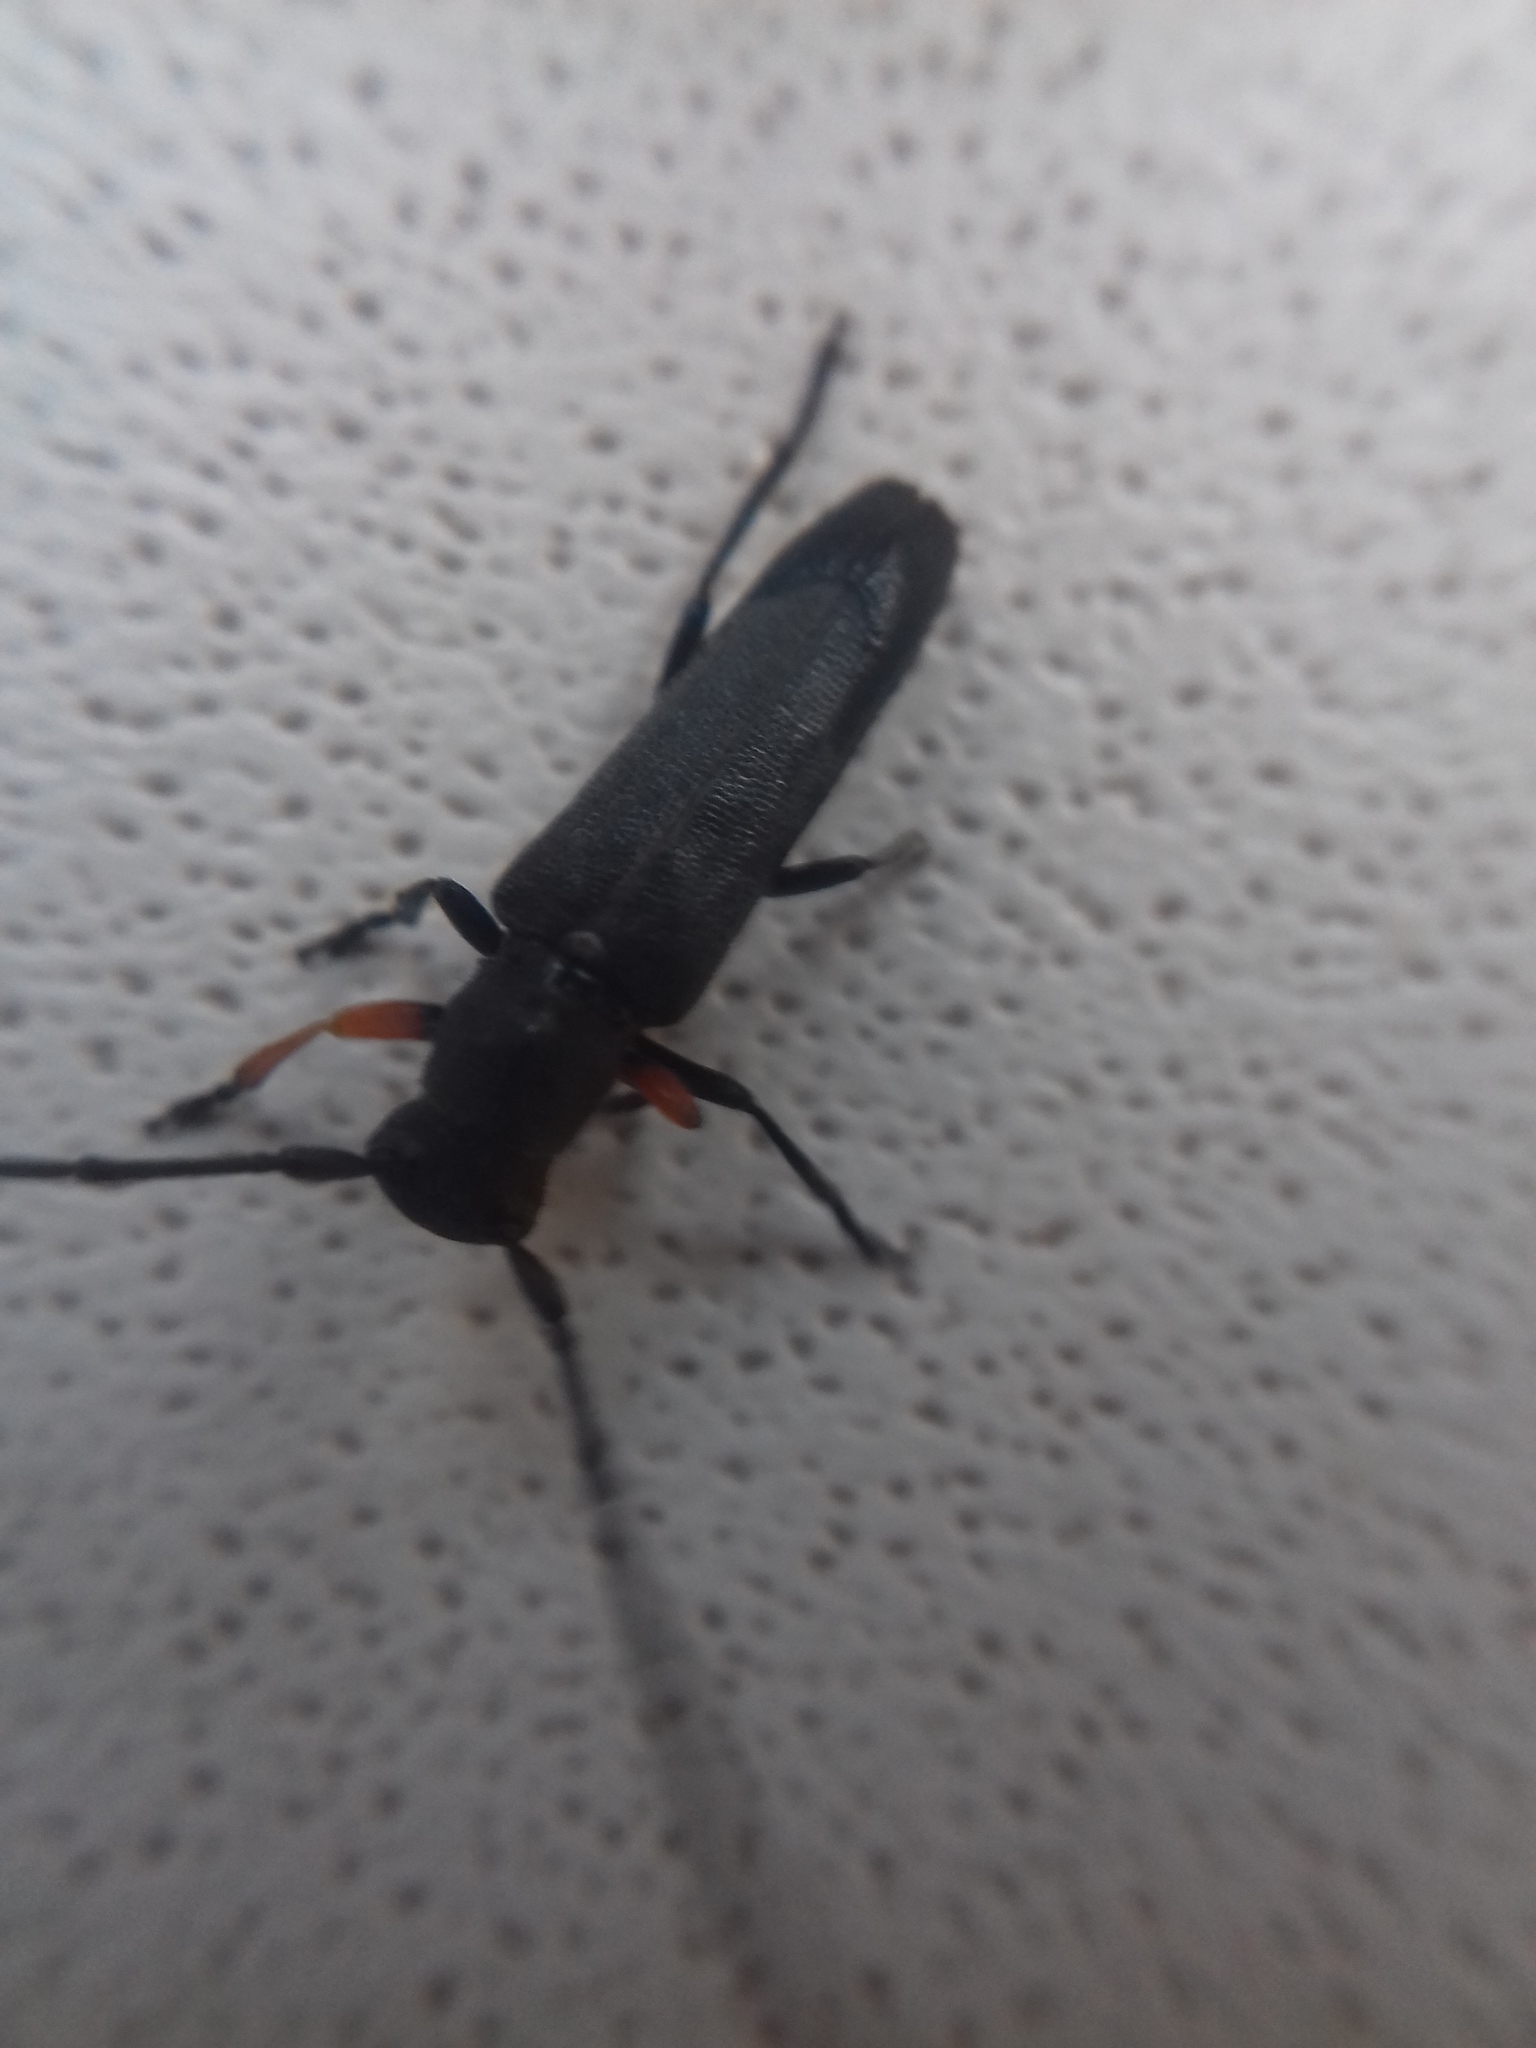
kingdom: Animalia
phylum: Arthropoda
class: Insecta
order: Coleoptera
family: Cerambycidae
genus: Phytoecia
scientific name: Phytoecia cylindrica
